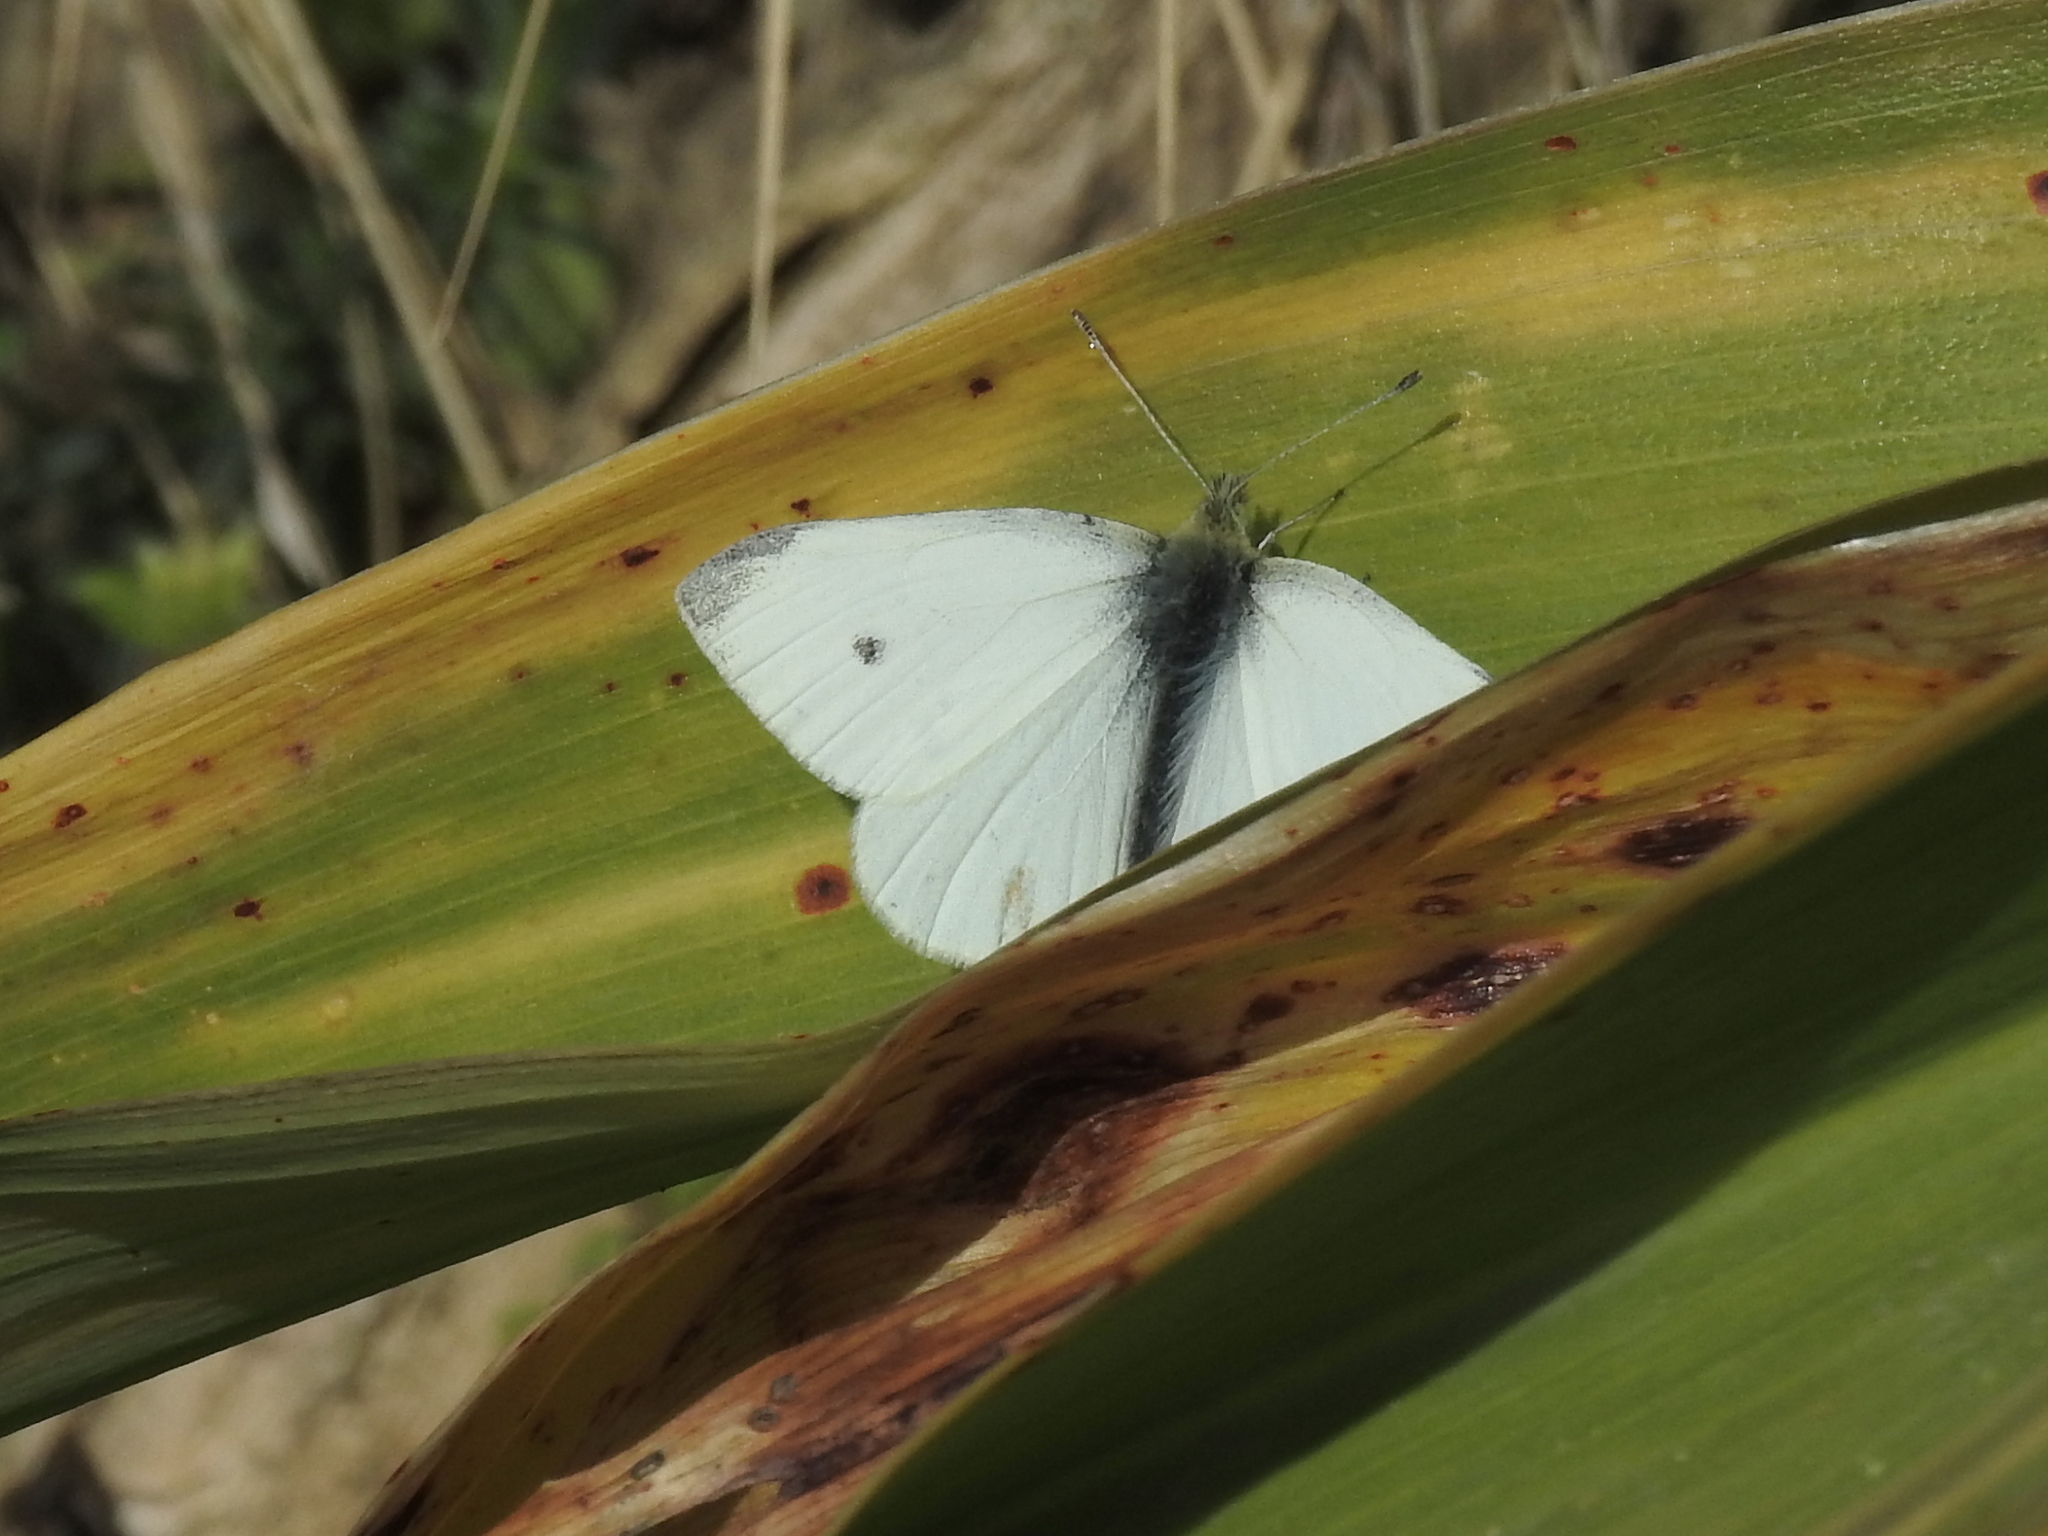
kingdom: Animalia
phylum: Arthropoda
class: Insecta
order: Lepidoptera
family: Pieridae
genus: Pieris
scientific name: Pieris rapae
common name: Small white
